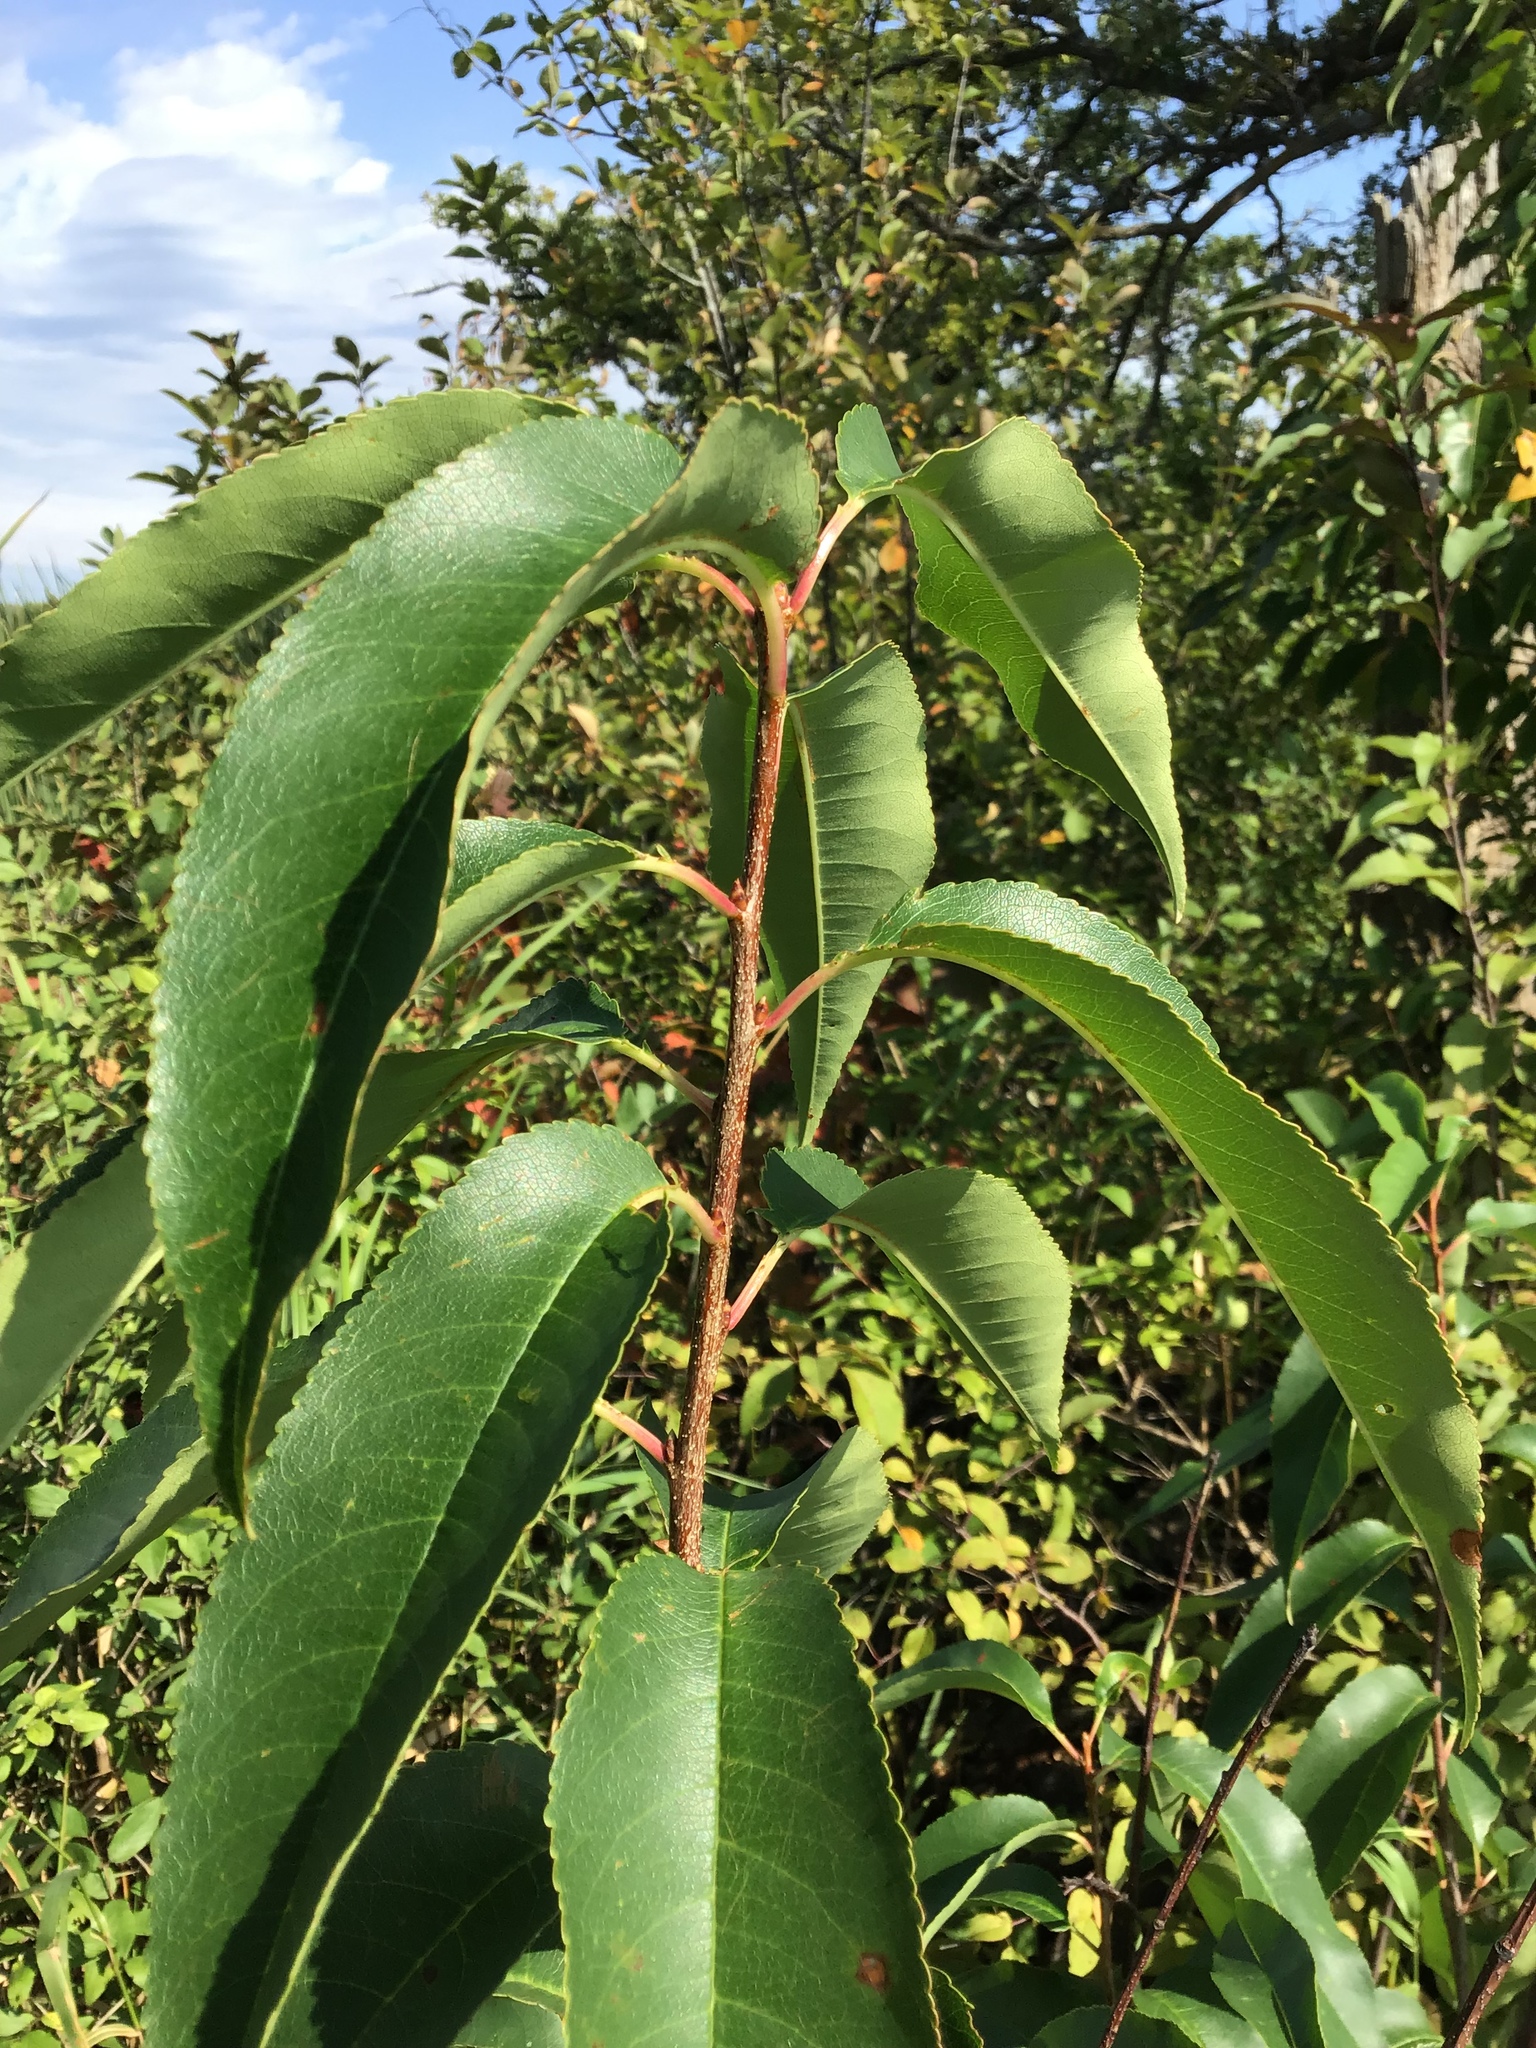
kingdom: Plantae
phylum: Tracheophyta
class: Magnoliopsida
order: Rosales
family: Rosaceae
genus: Prunus
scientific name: Prunus serotina
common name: Black cherry
